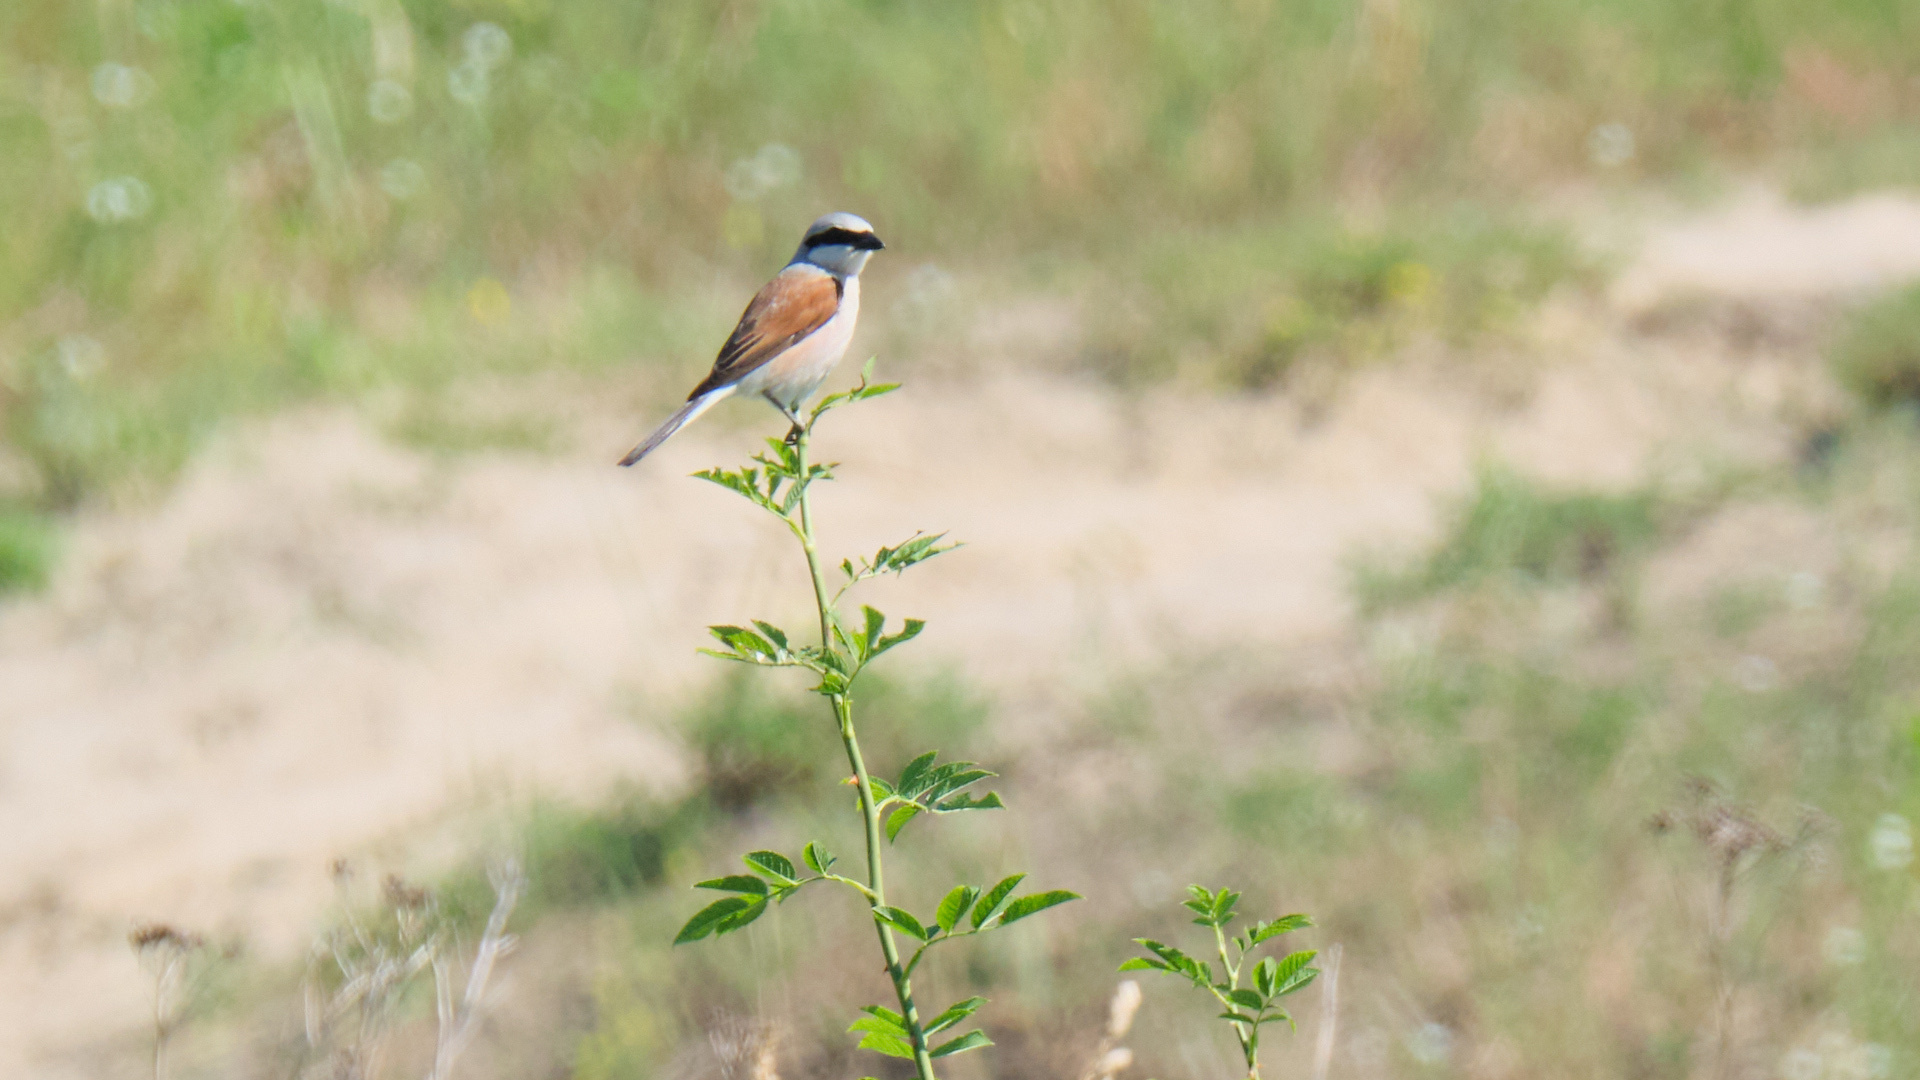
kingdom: Animalia
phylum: Chordata
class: Aves
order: Passeriformes
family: Laniidae
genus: Lanius
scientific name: Lanius collurio
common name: Red-backed shrike
